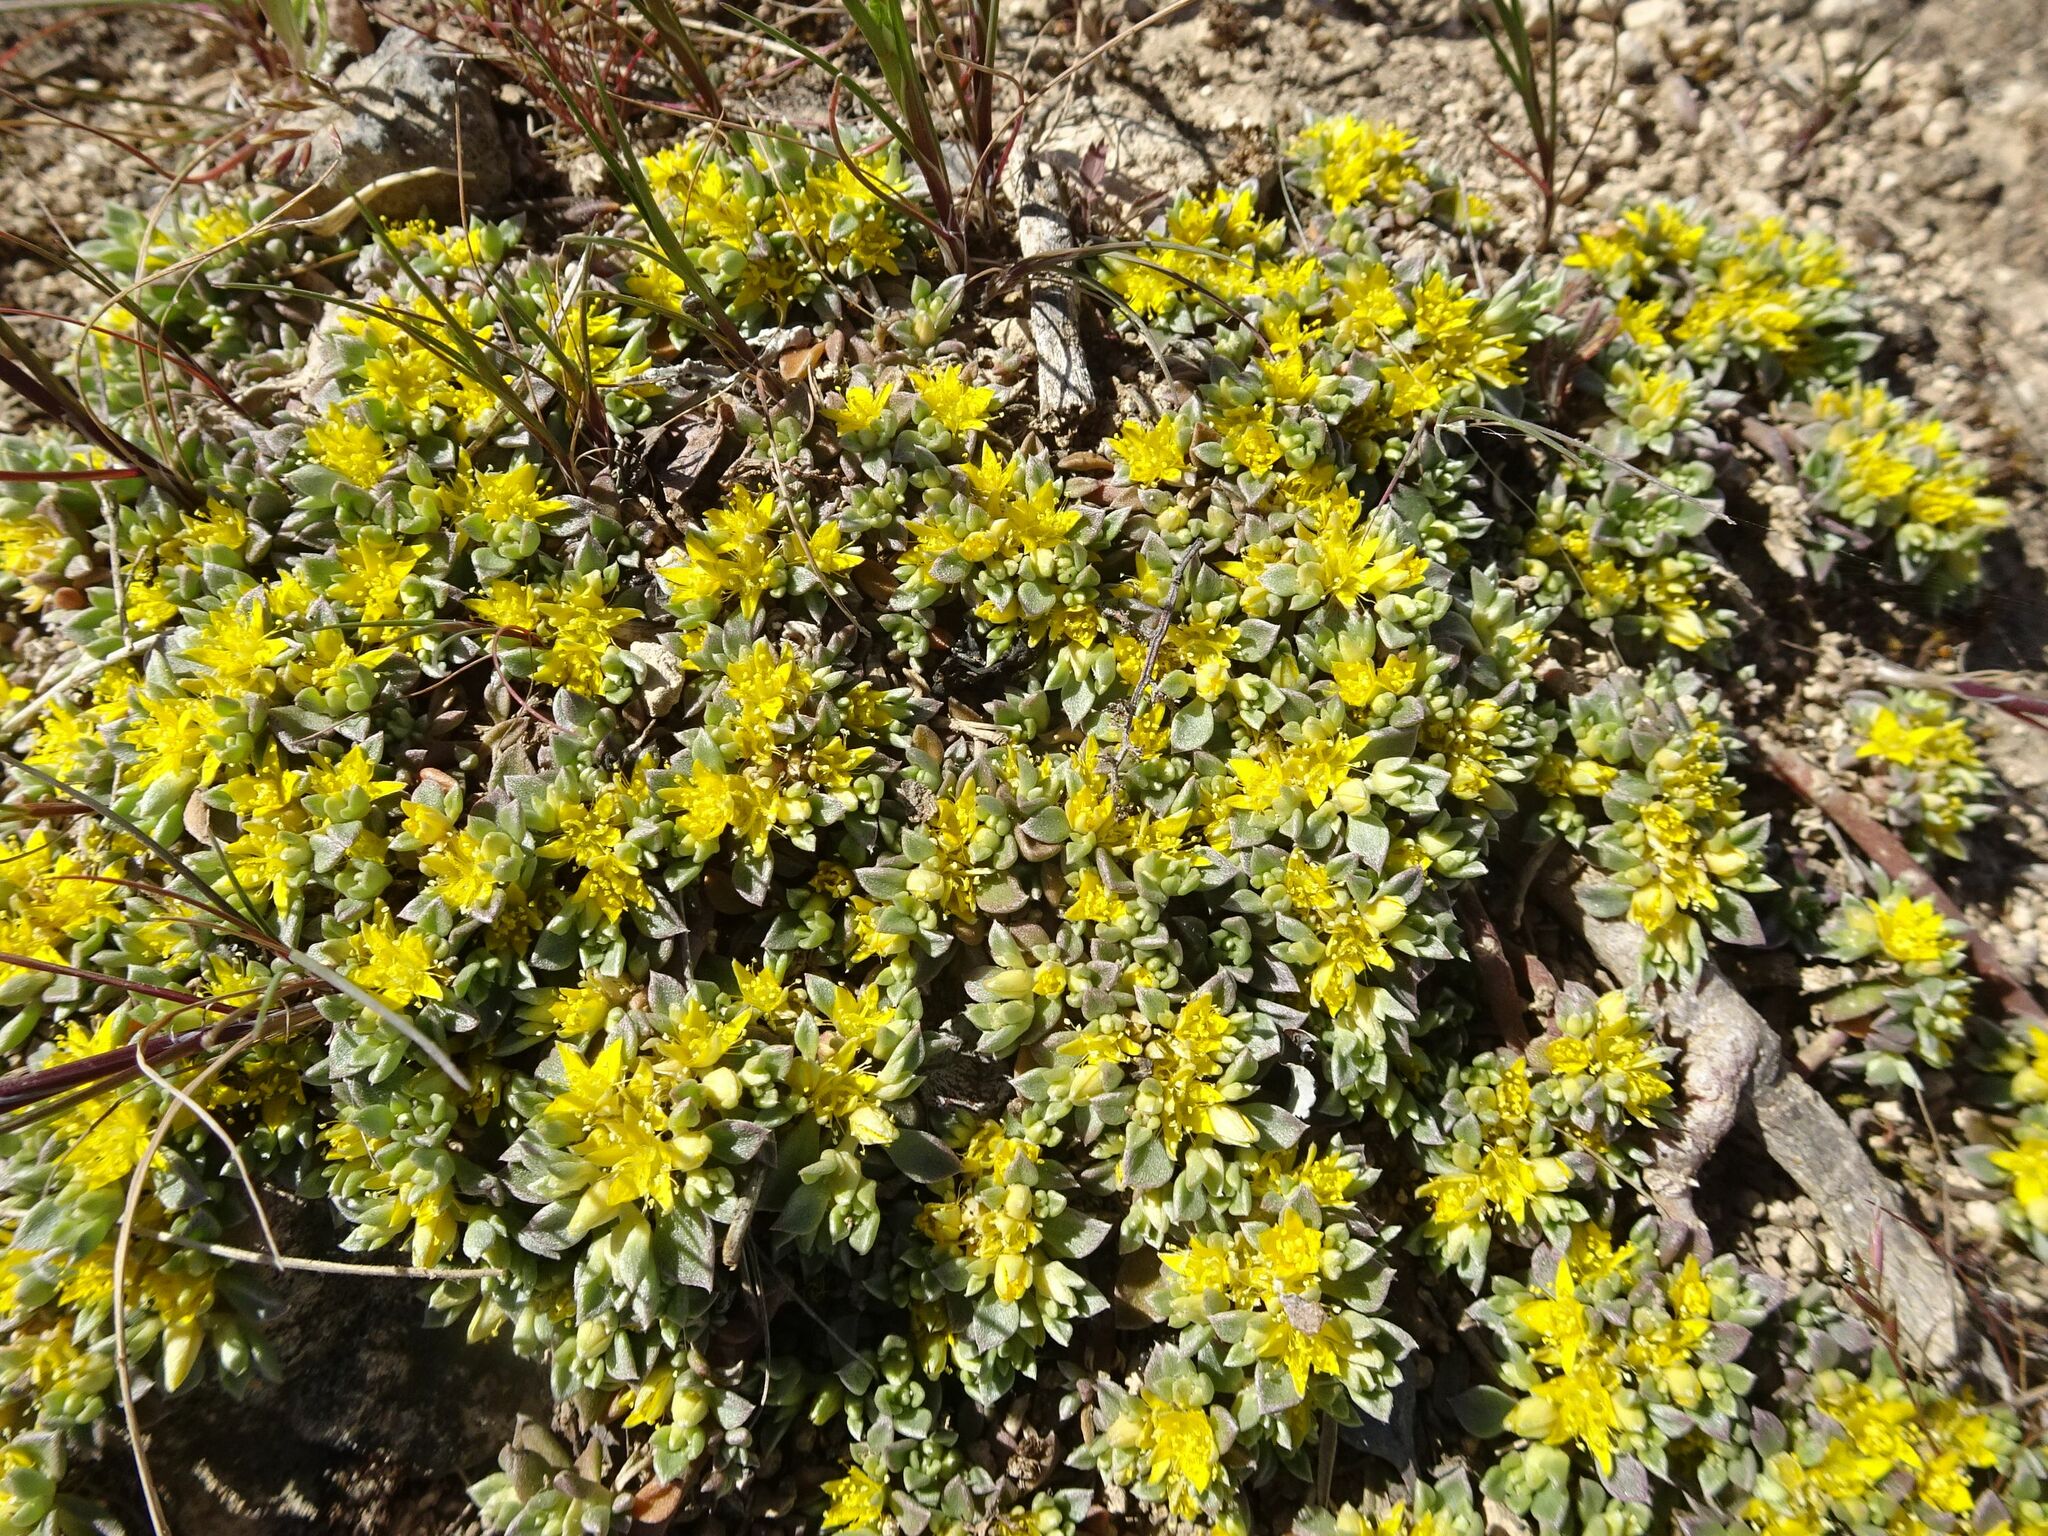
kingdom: Plantae
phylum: Tracheophyta
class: Magnoliopsida
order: Caryophyllales
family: Aizoaceae
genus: Aizoon
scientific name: Aizoon rigidum
